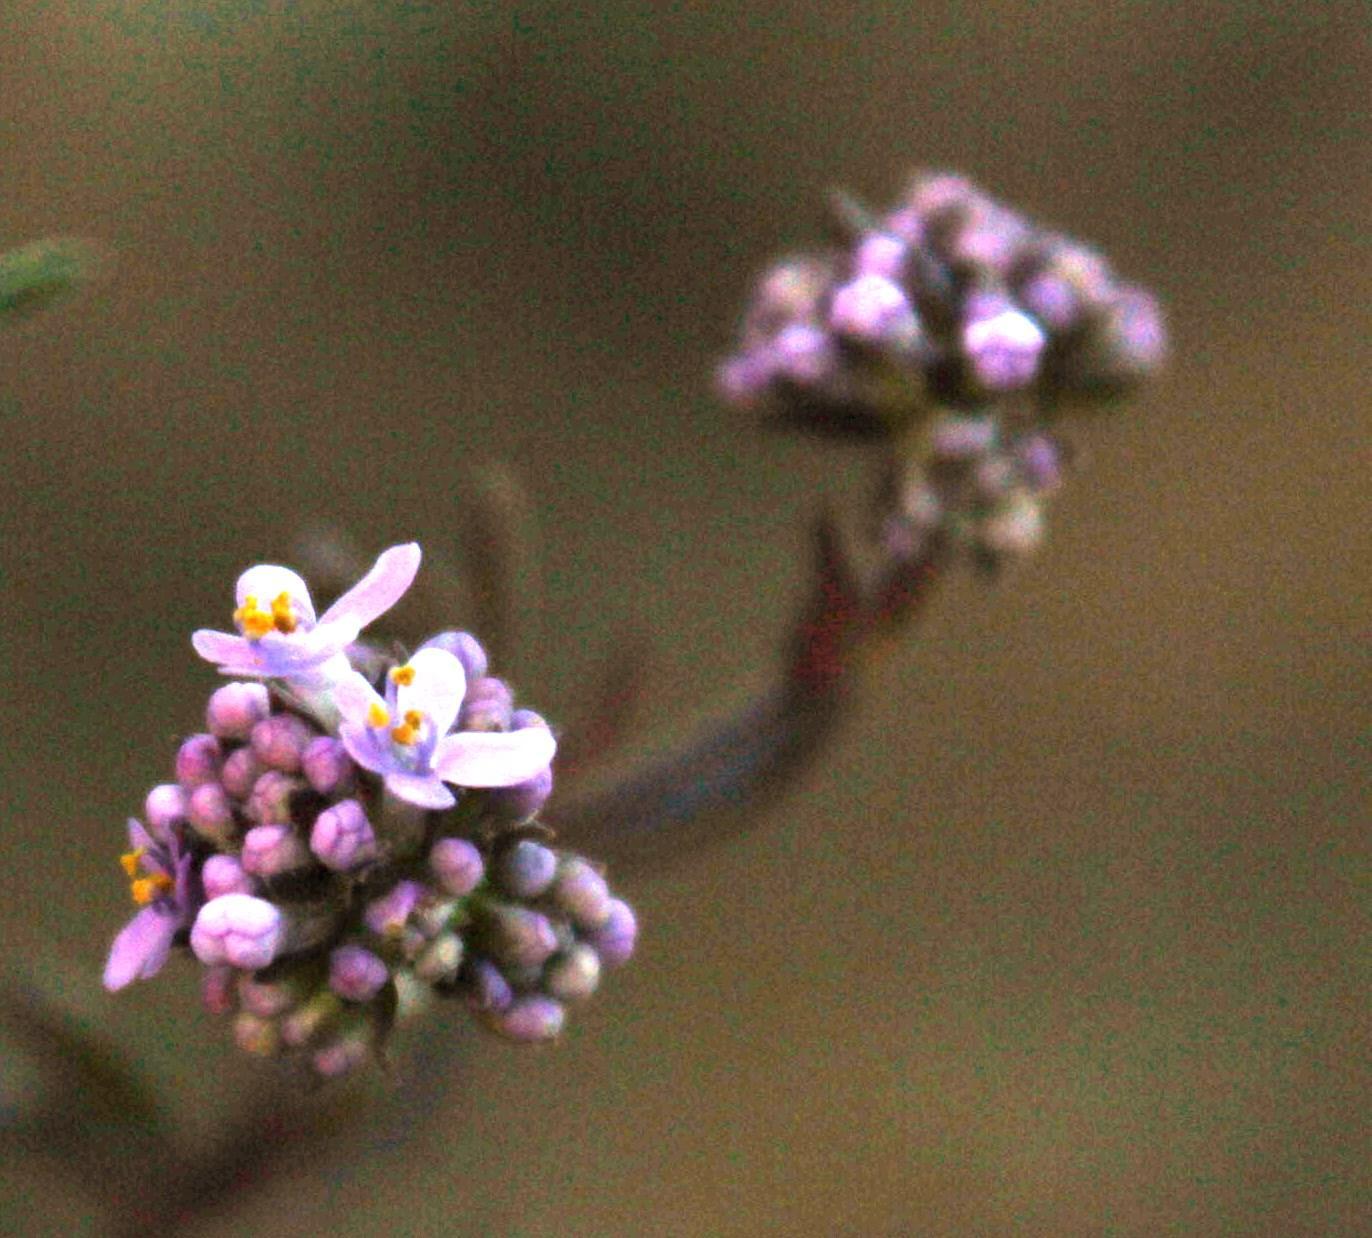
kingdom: Plantae
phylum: Tracheophyta
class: Magnoliopsida
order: Lamiales
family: Scrophulariaceae
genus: Selago
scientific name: Selago monticola
